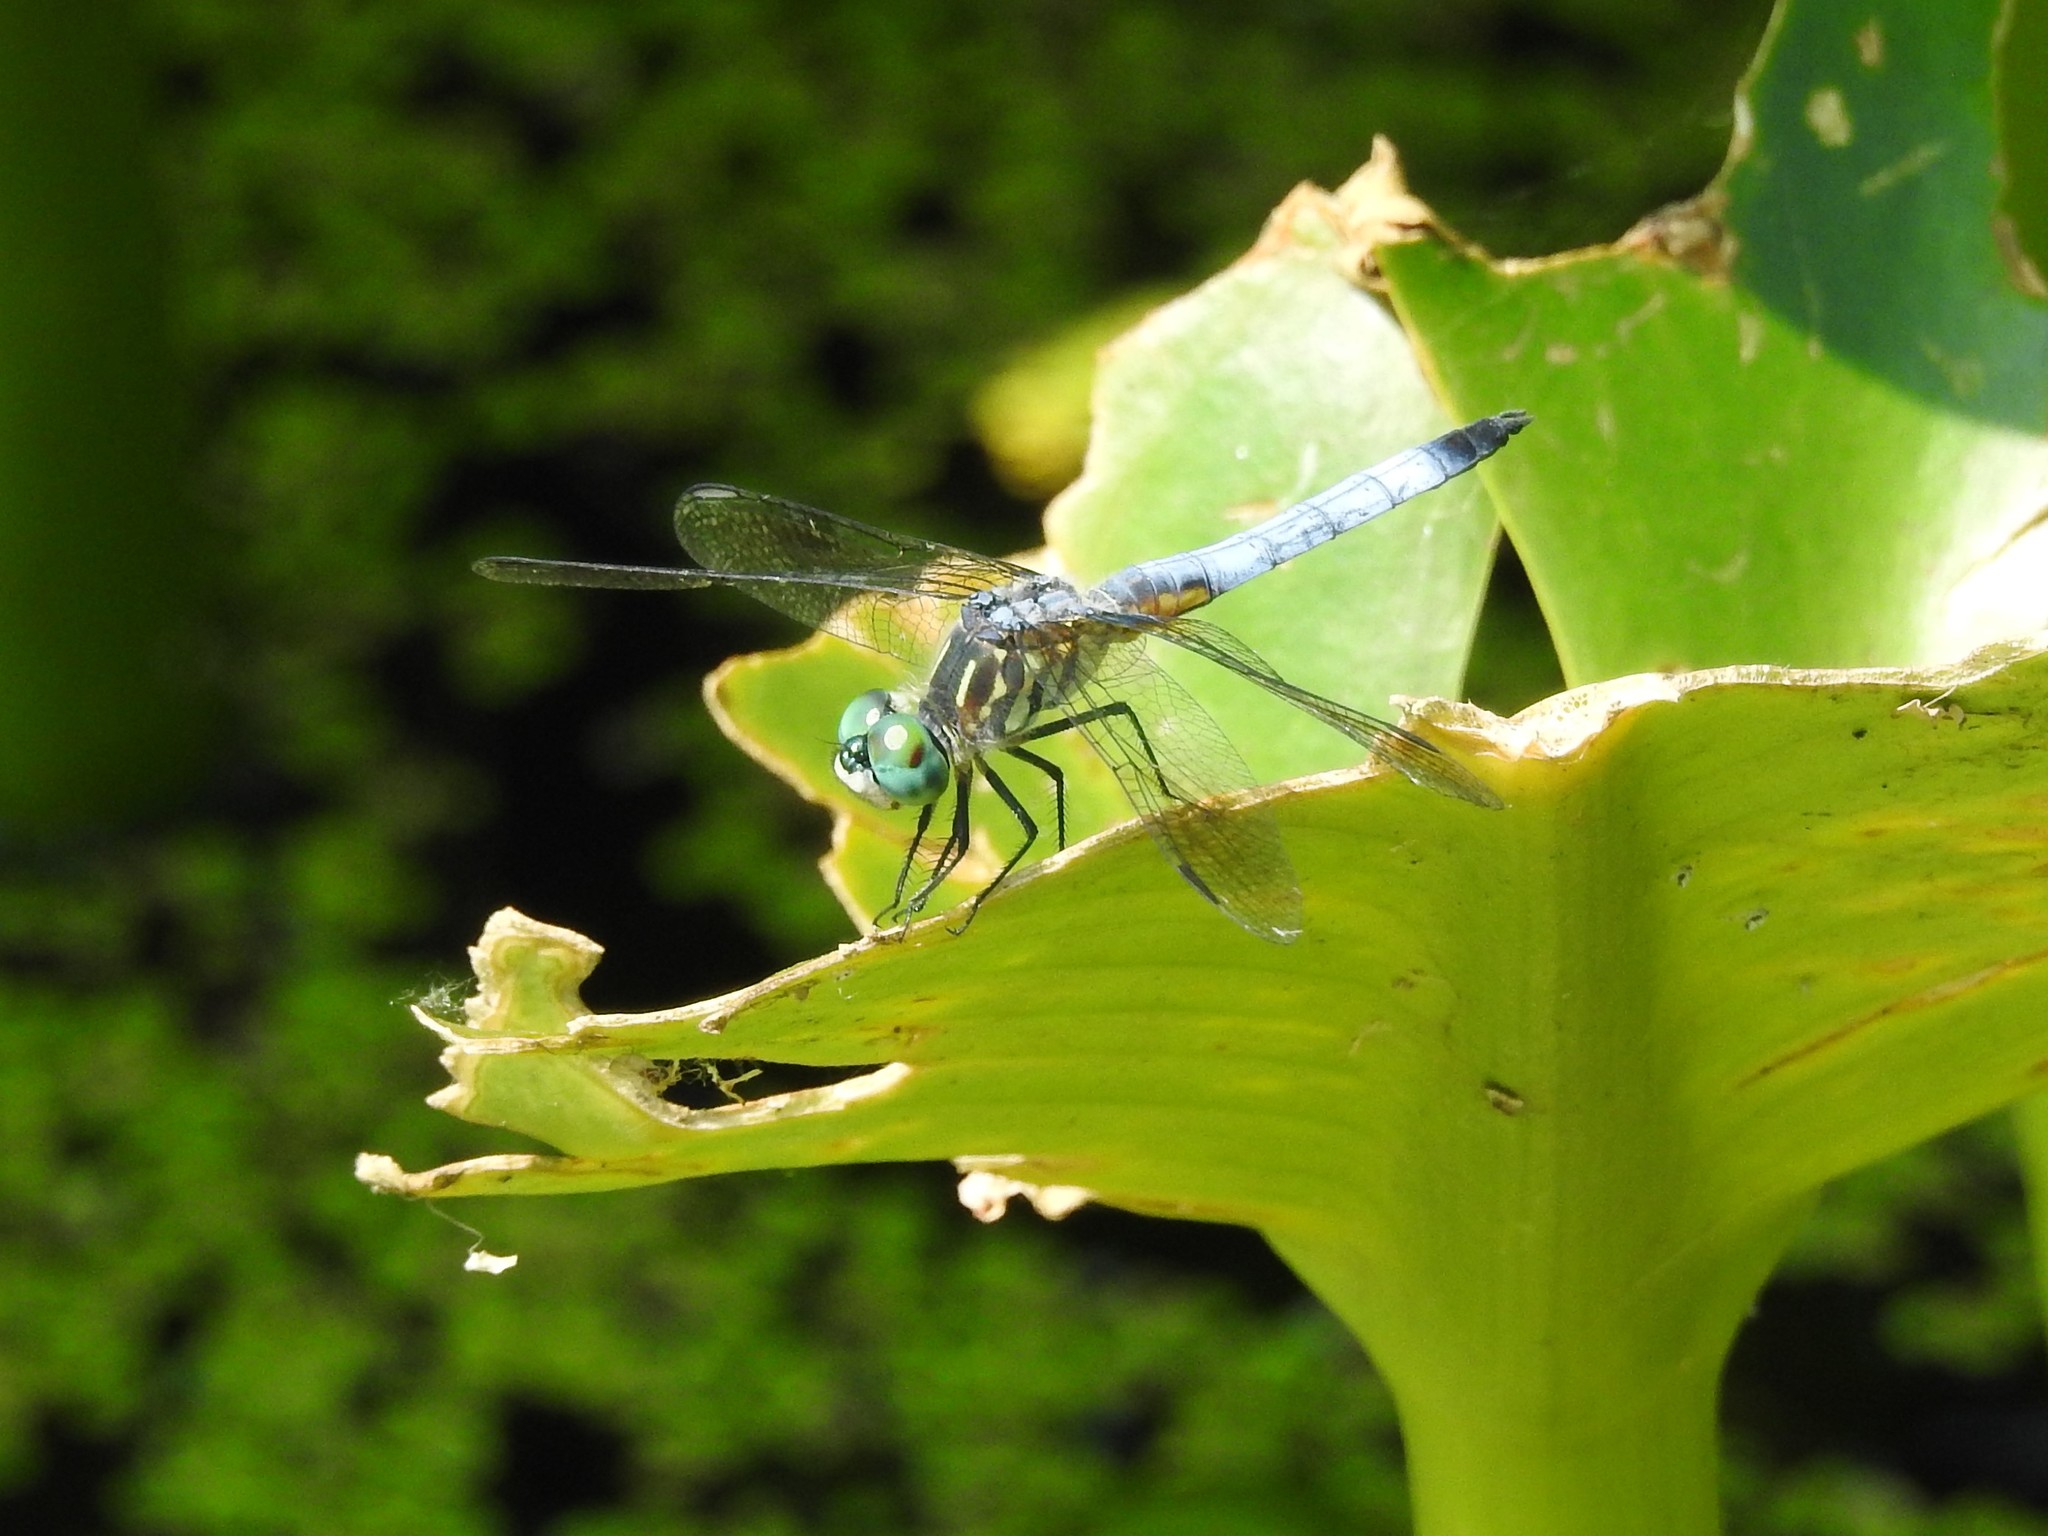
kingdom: Animalia
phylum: Arthropoda
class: Insecta
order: Odonata
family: Libellulidae
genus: Pachydiplax
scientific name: Pachydiplax longipennis
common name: Blue dasher
